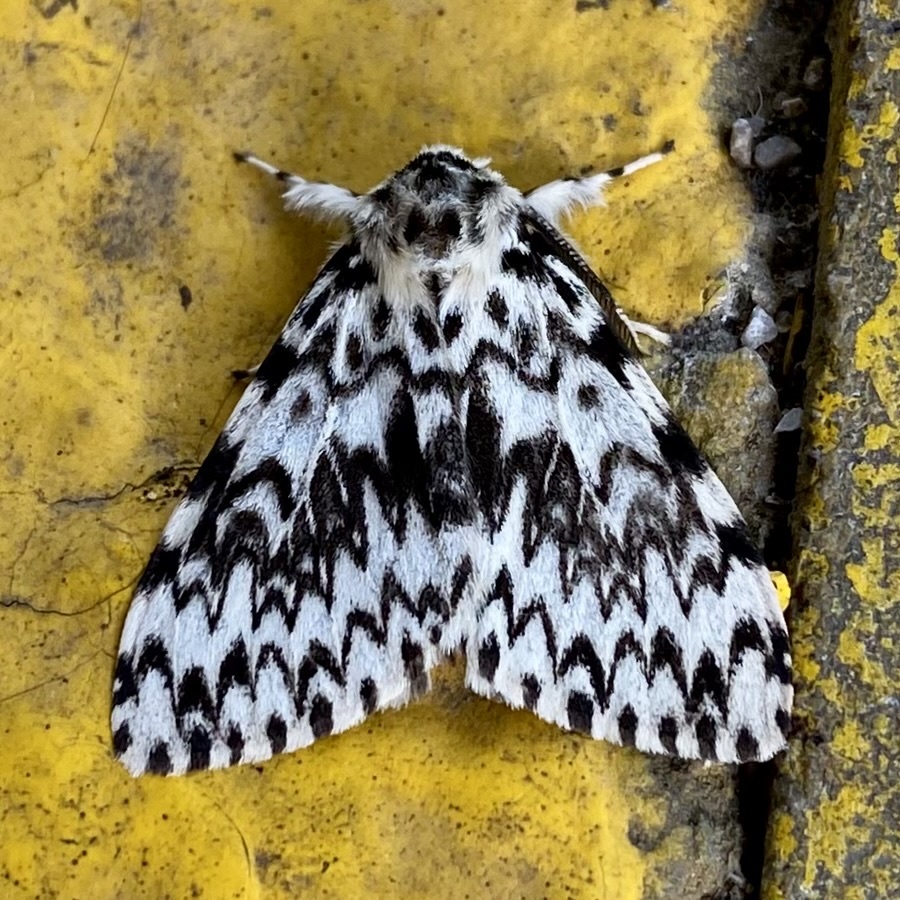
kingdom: Animalia
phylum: Arthropoda
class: Insecta
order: Lepidoptera
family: Erebidae
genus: Lymantria
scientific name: Lymantria monacha
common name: Black arches
